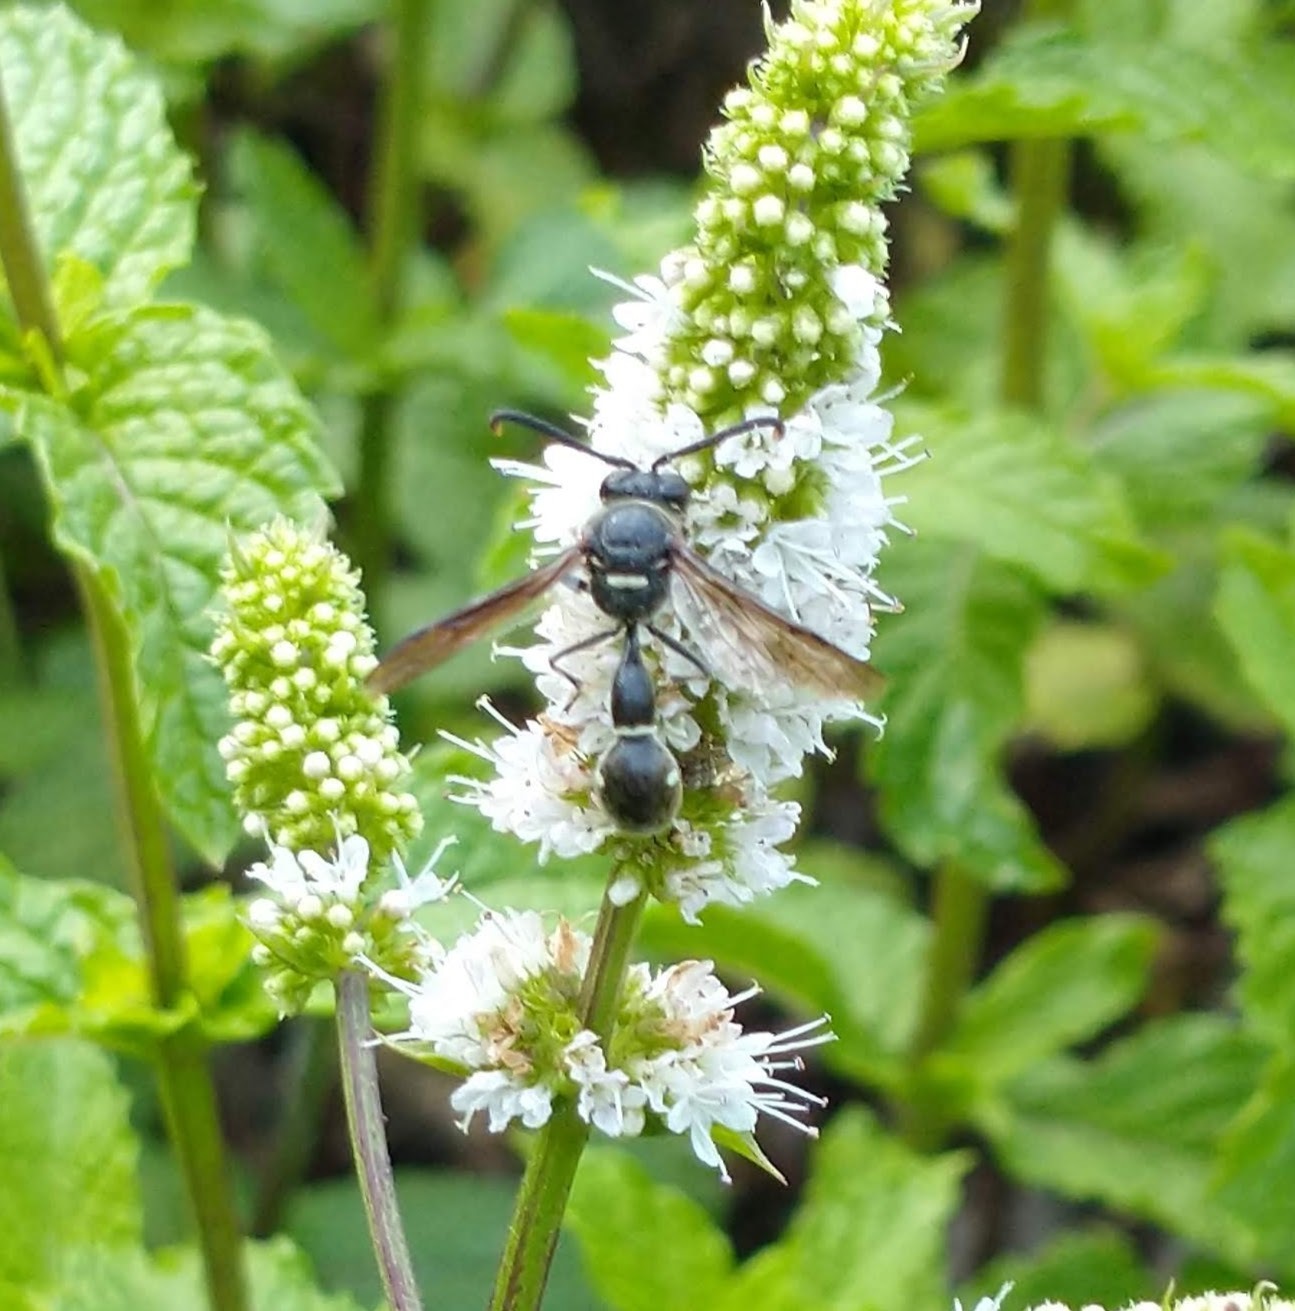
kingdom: Animalia
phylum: Arthropoda
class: Insecta
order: Hymenoptera
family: Vespidae
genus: Eumenes
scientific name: Eumenes fraternus
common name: Fraternal potter wasp
